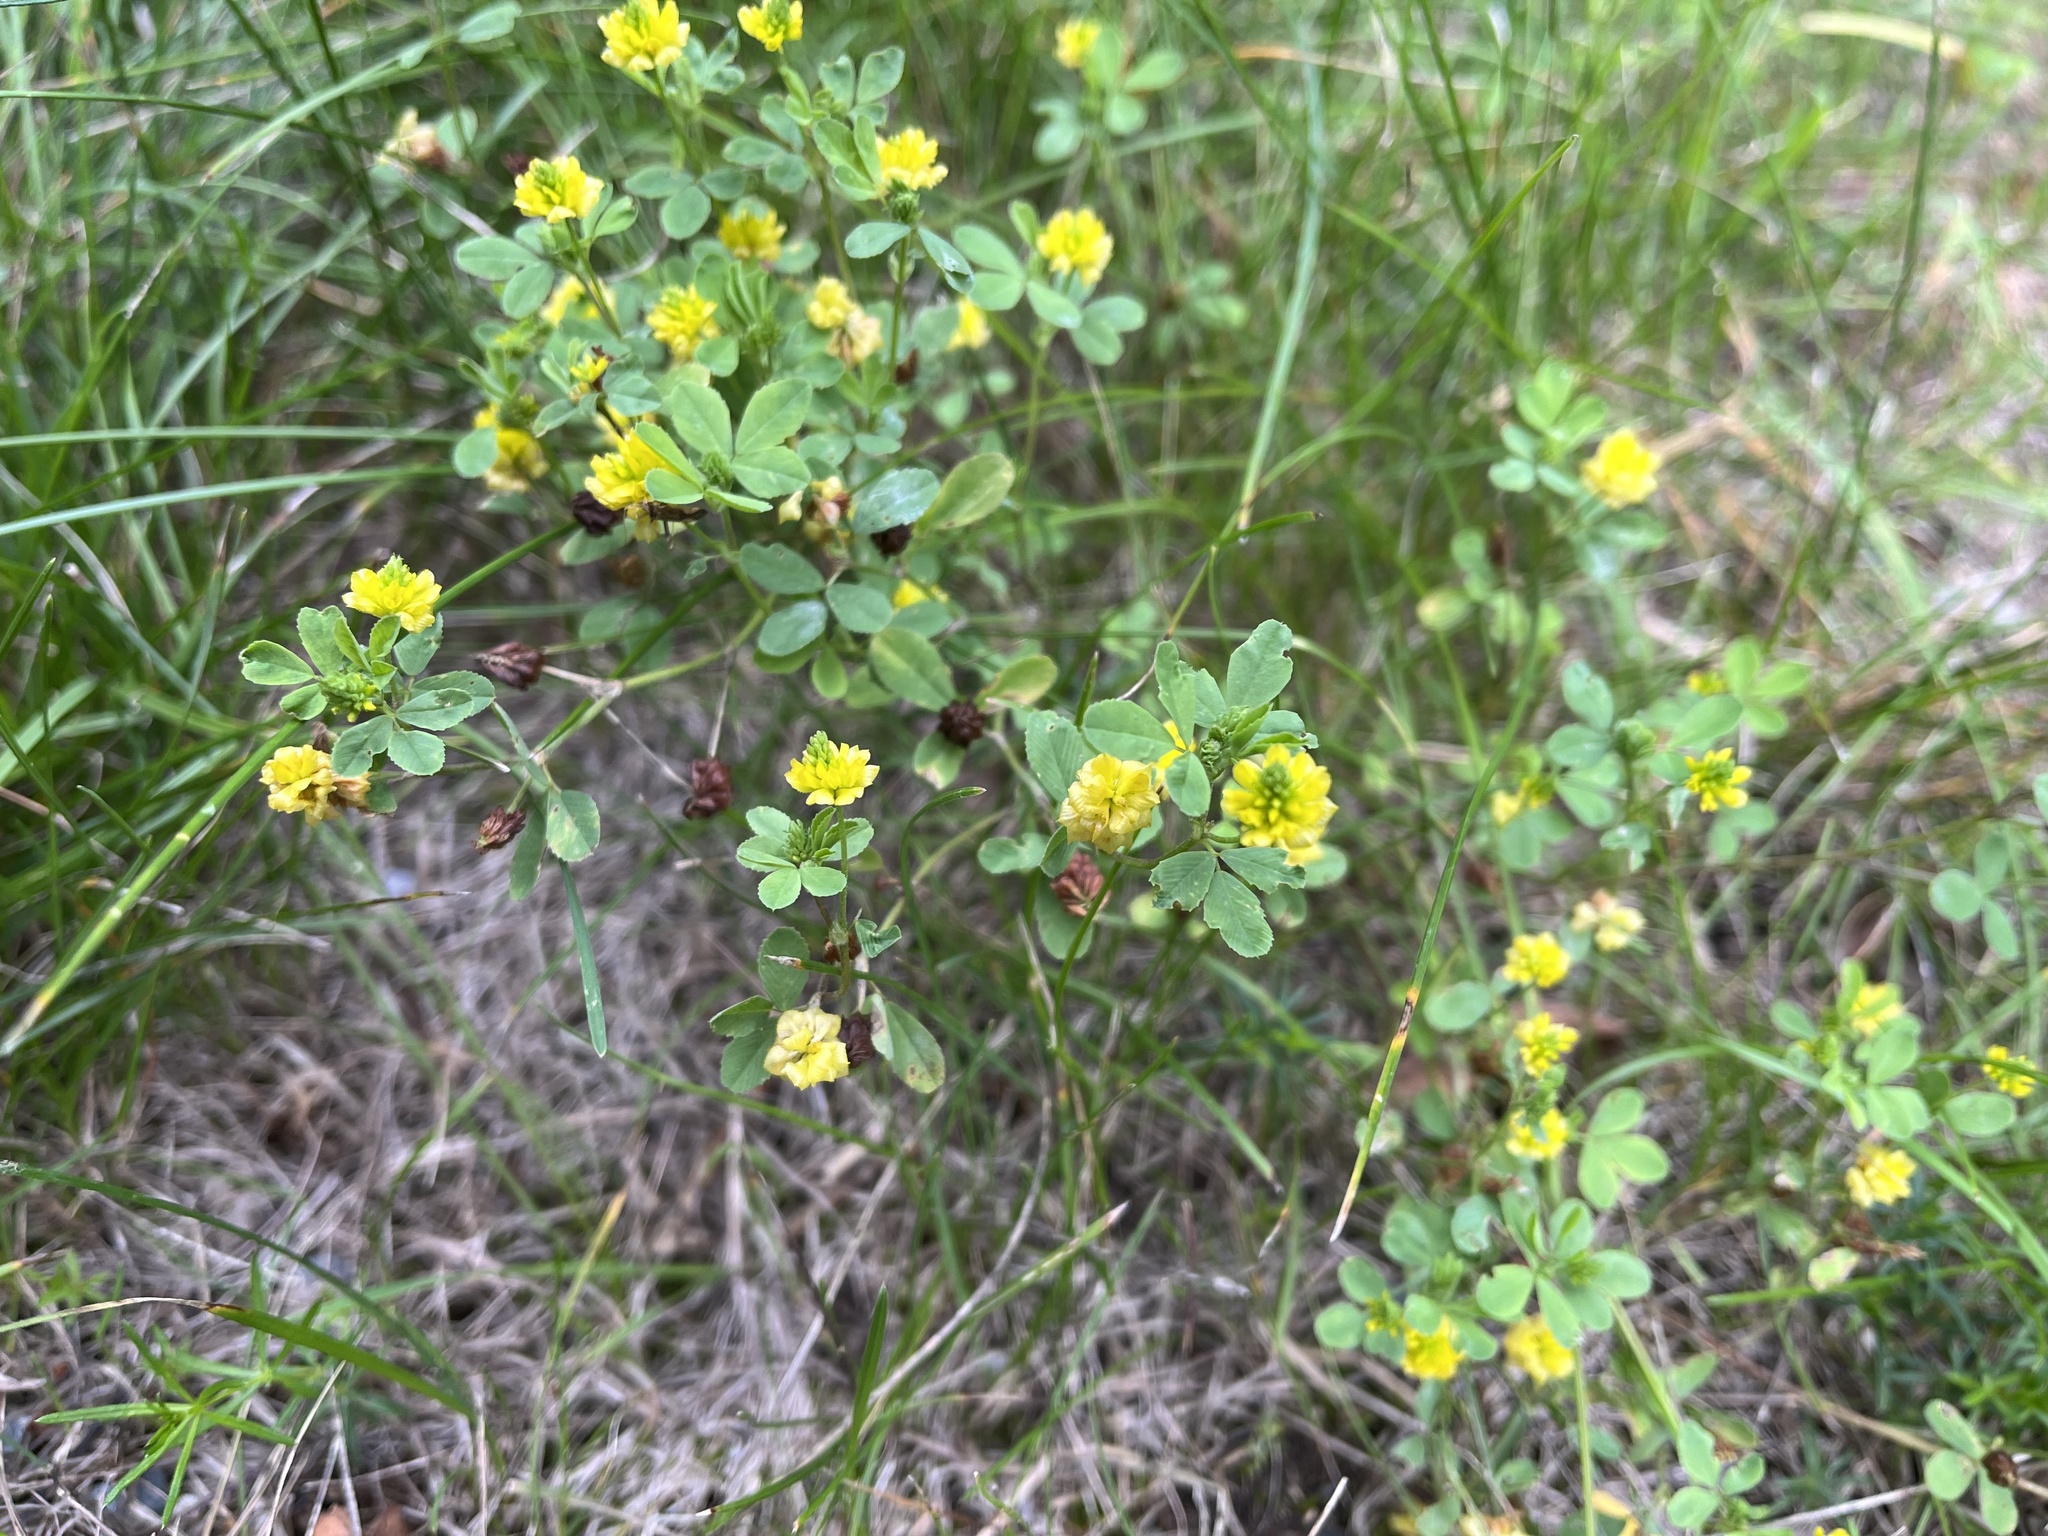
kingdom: Plantae
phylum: Tracheophyta
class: Magnoliopsida
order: Fabales
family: Fabaceae
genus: Trifolium
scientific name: Trifolium campestre
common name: Field clover
